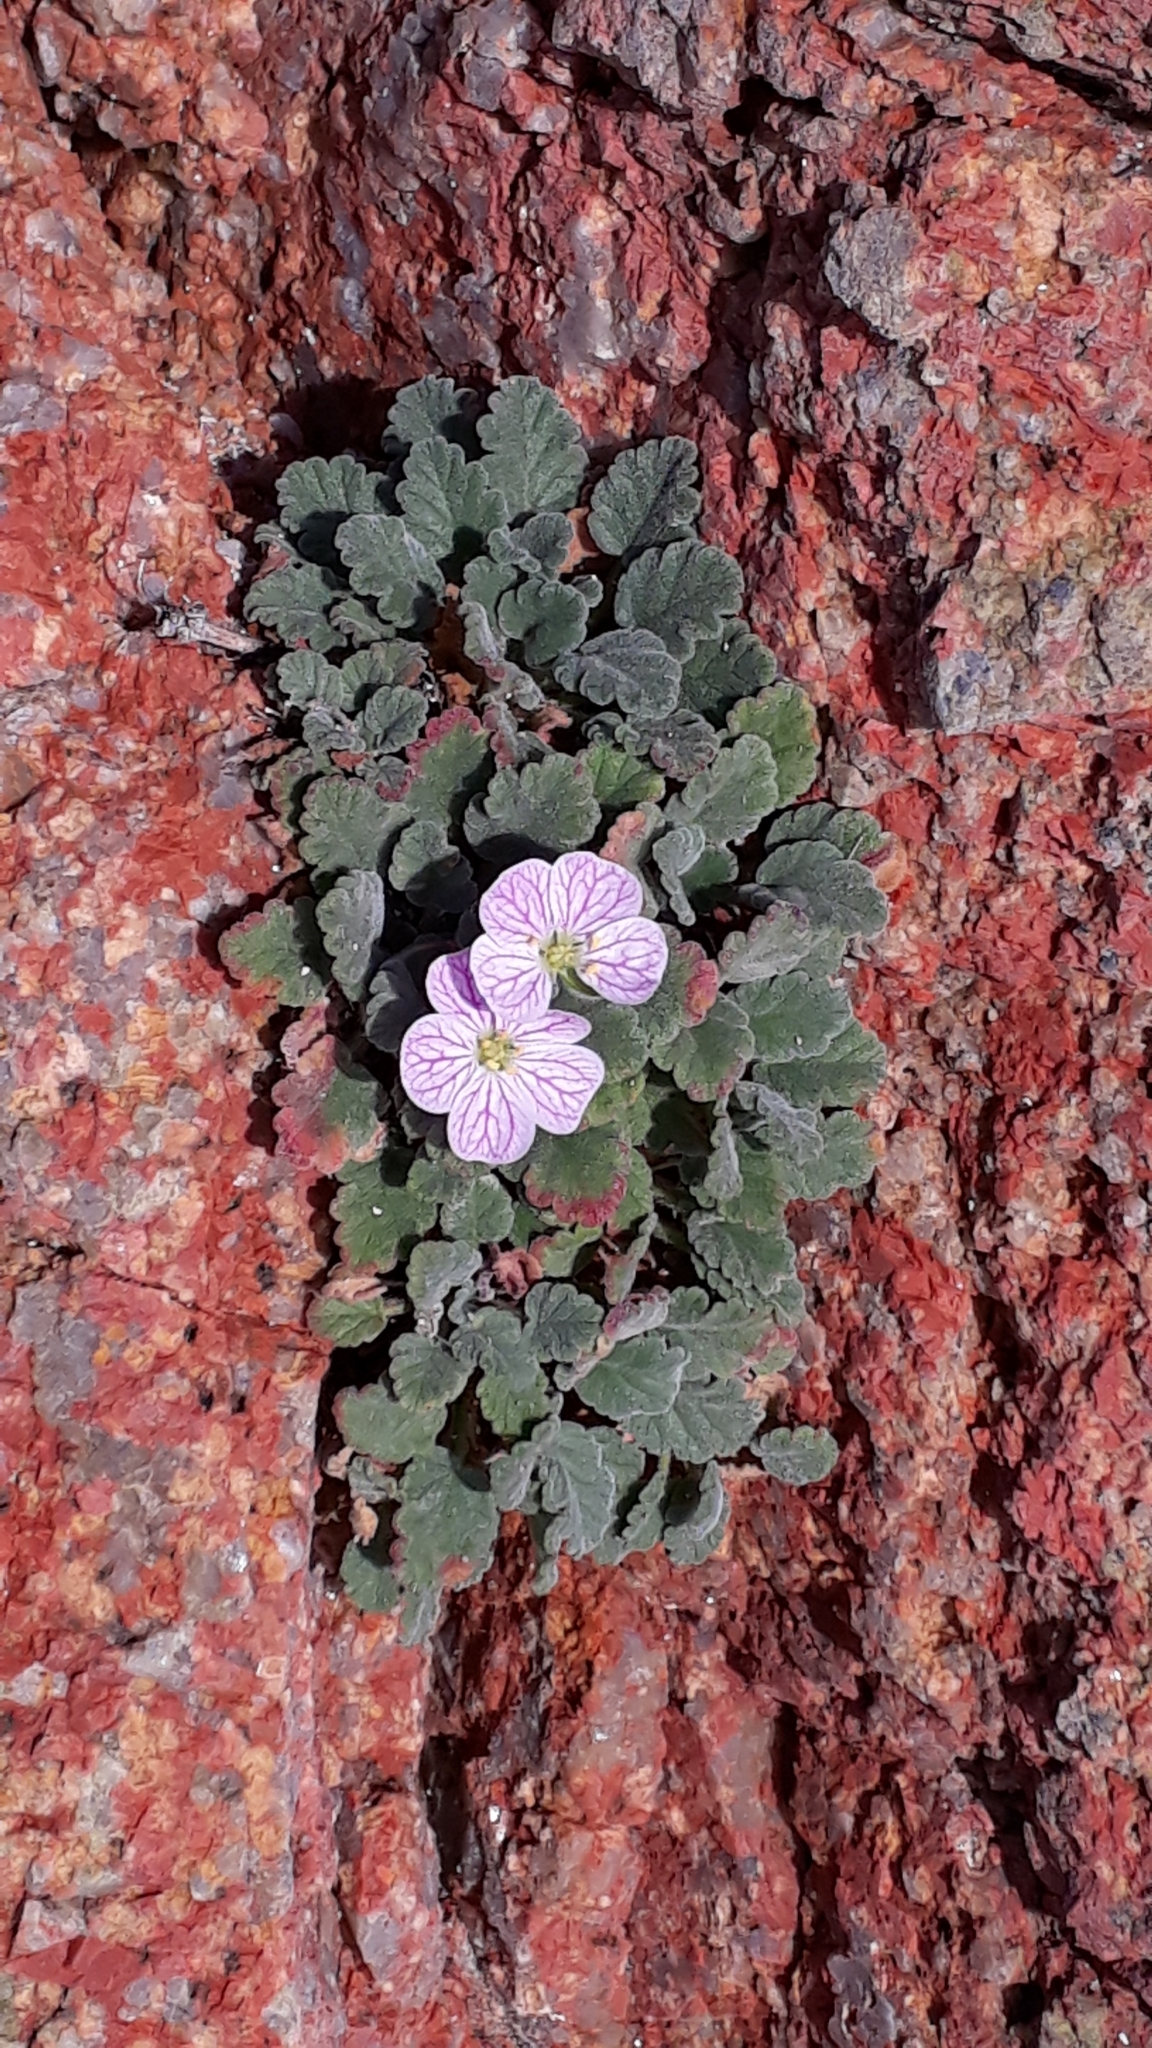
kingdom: Plantae
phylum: Tracheophyta
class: Magnoliopsida
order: Geraniales
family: Geraniaceae
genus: Erodium
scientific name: Erodium corsicum
